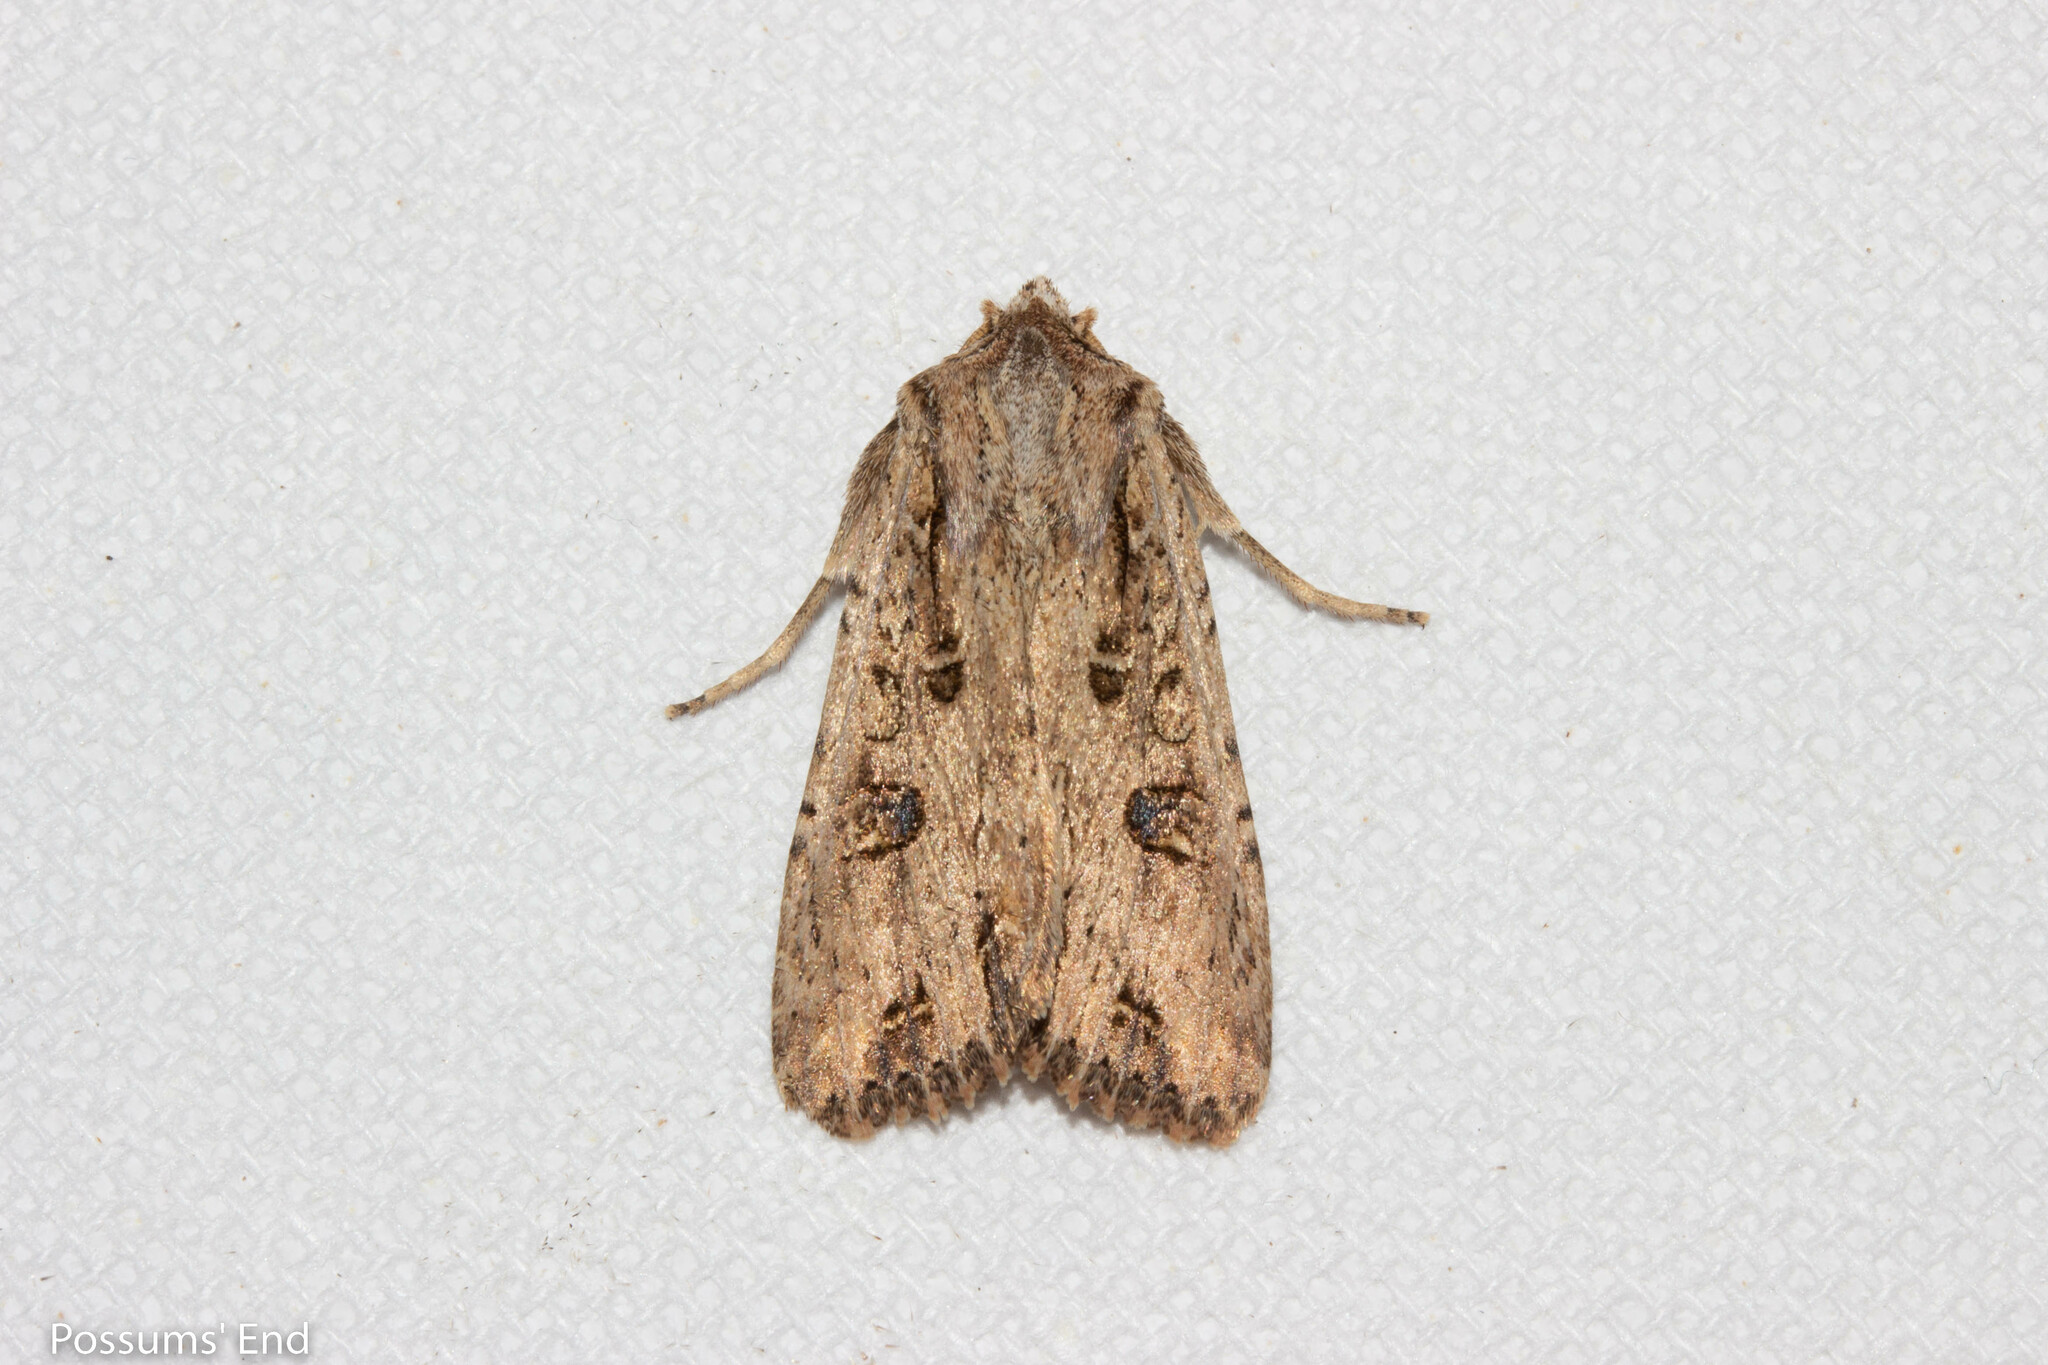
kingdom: Animalia
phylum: Arthropoda
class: Insecta
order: Lepidoptera
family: Noctuidae
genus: Ichneutica
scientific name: Ichneutica lignana
